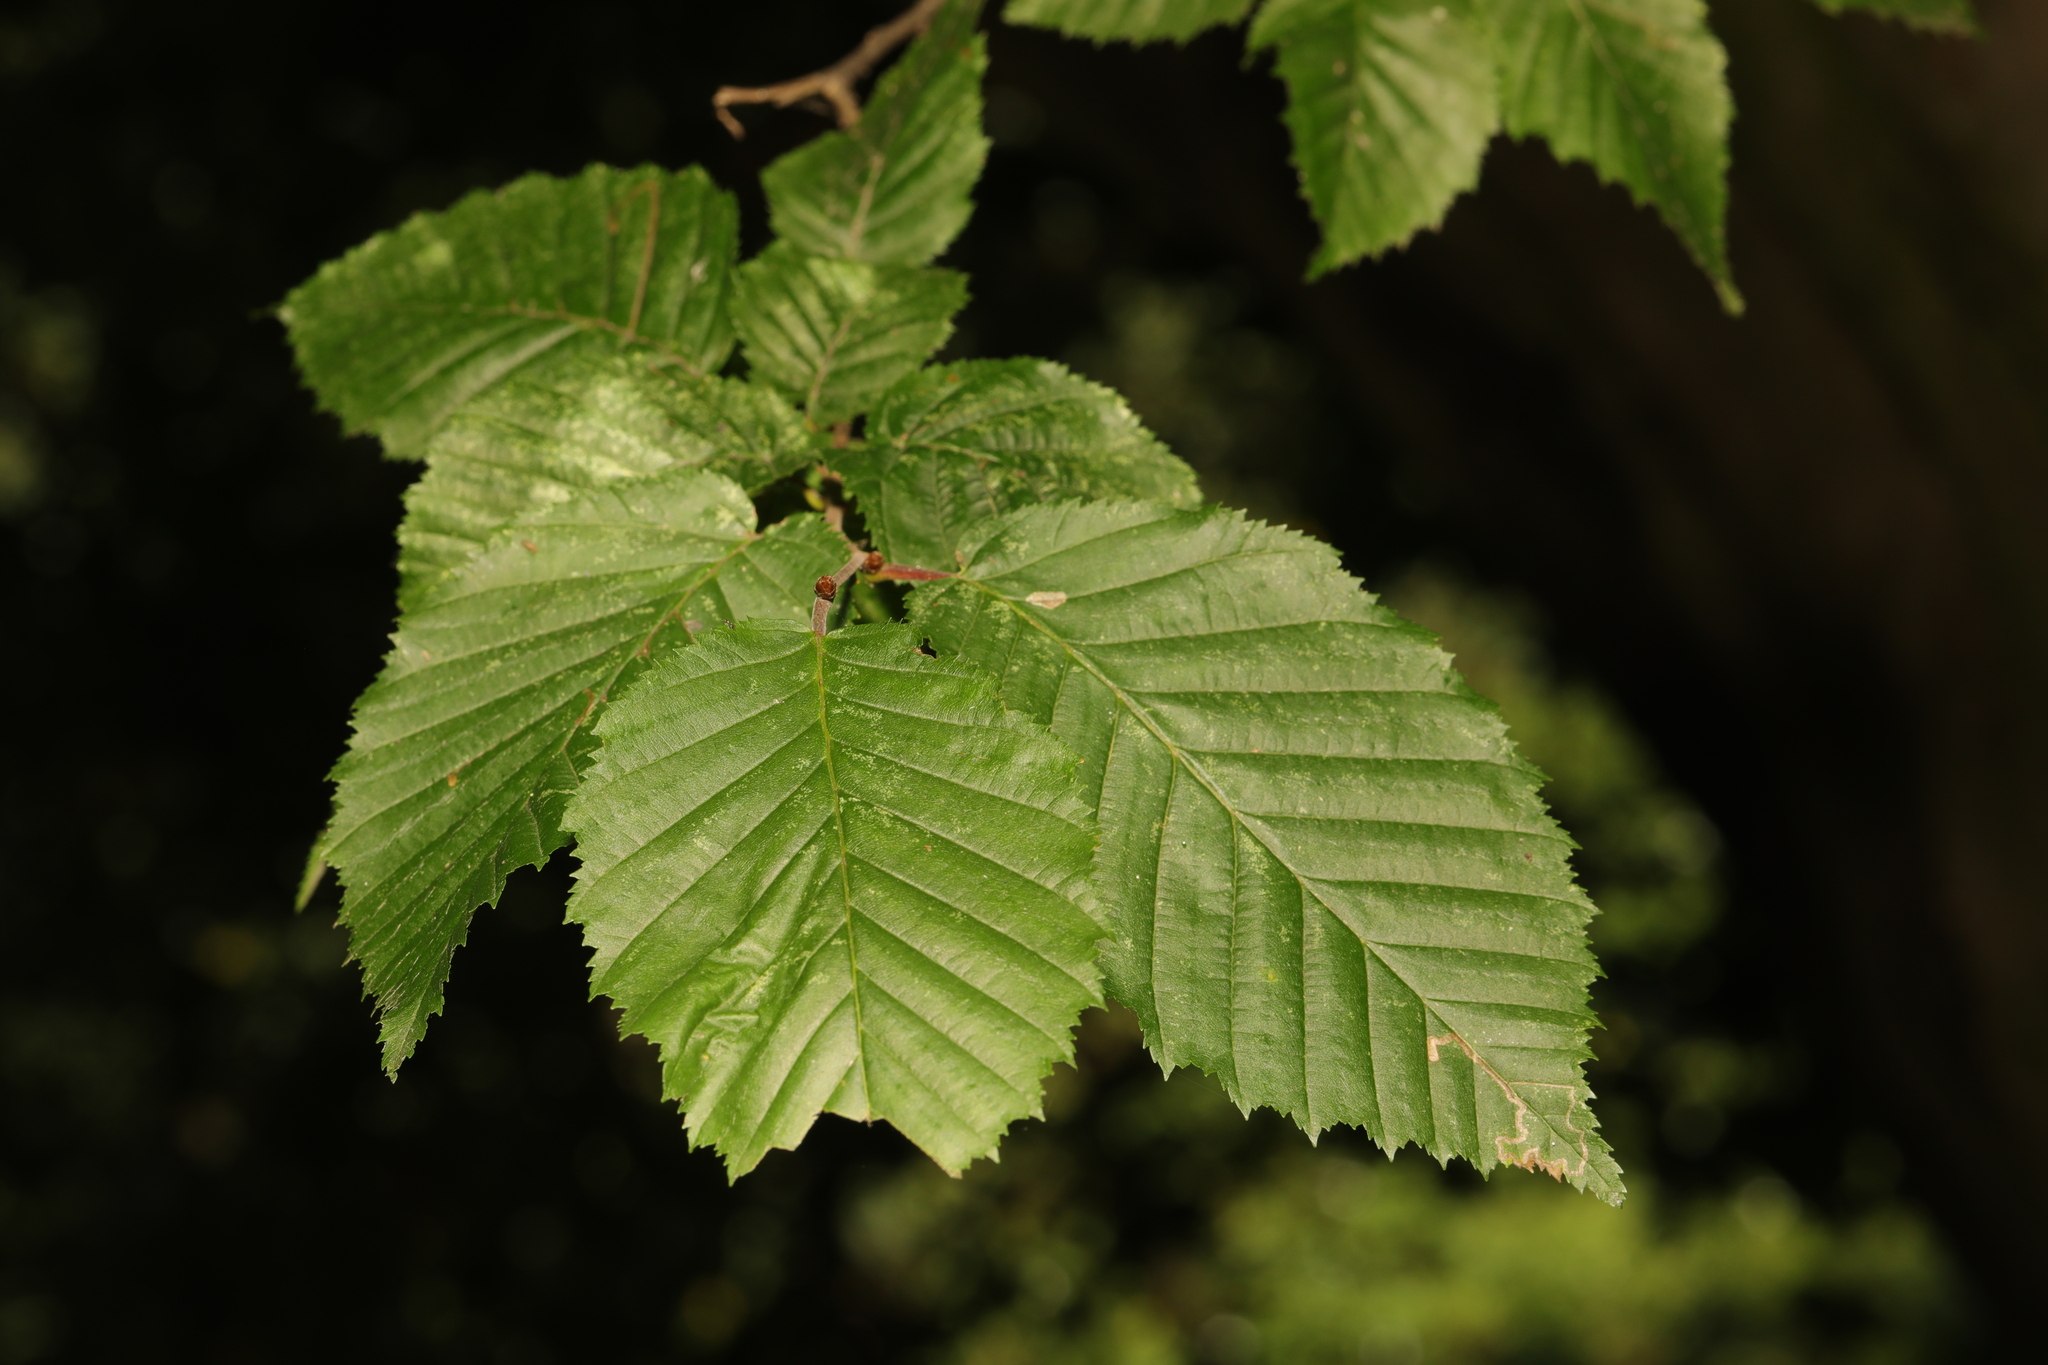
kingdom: Plantae
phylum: Tracheophyta
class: Magnoliopsida
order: Fagales
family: Betulaceae
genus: Carpinus
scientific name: Carpinus betulus
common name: Hornbeam
